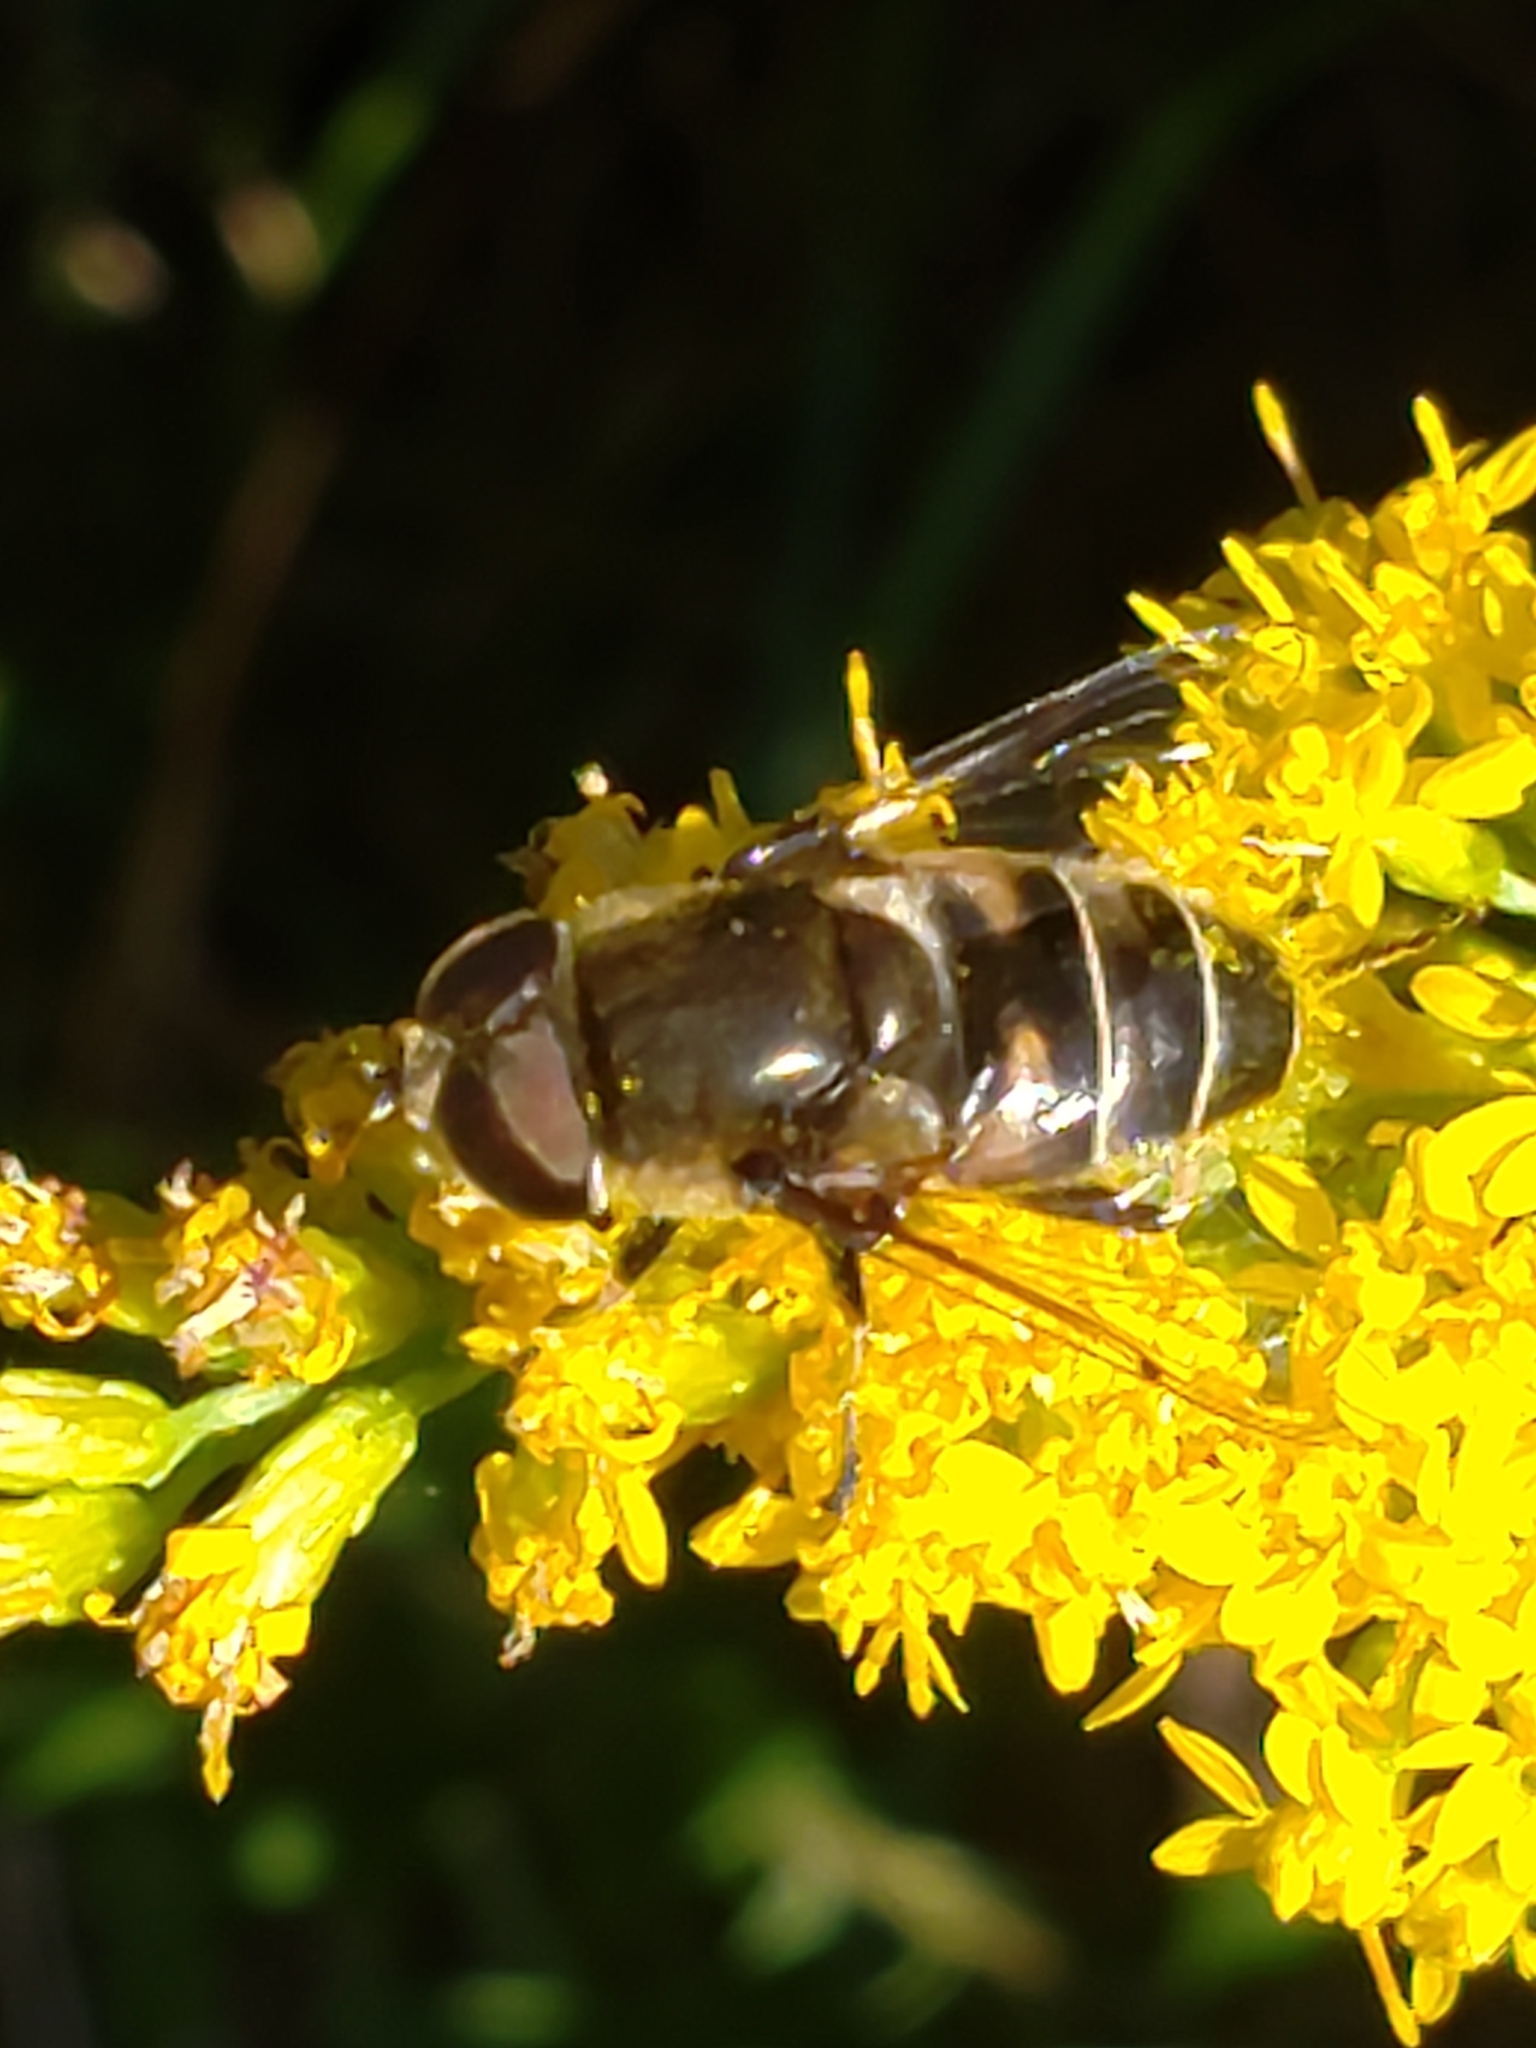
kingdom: Animalia
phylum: Arthropoda
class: Insecta
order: Diptera
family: Syrphidae
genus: Eristalis
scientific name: Eristalis dimidiata
